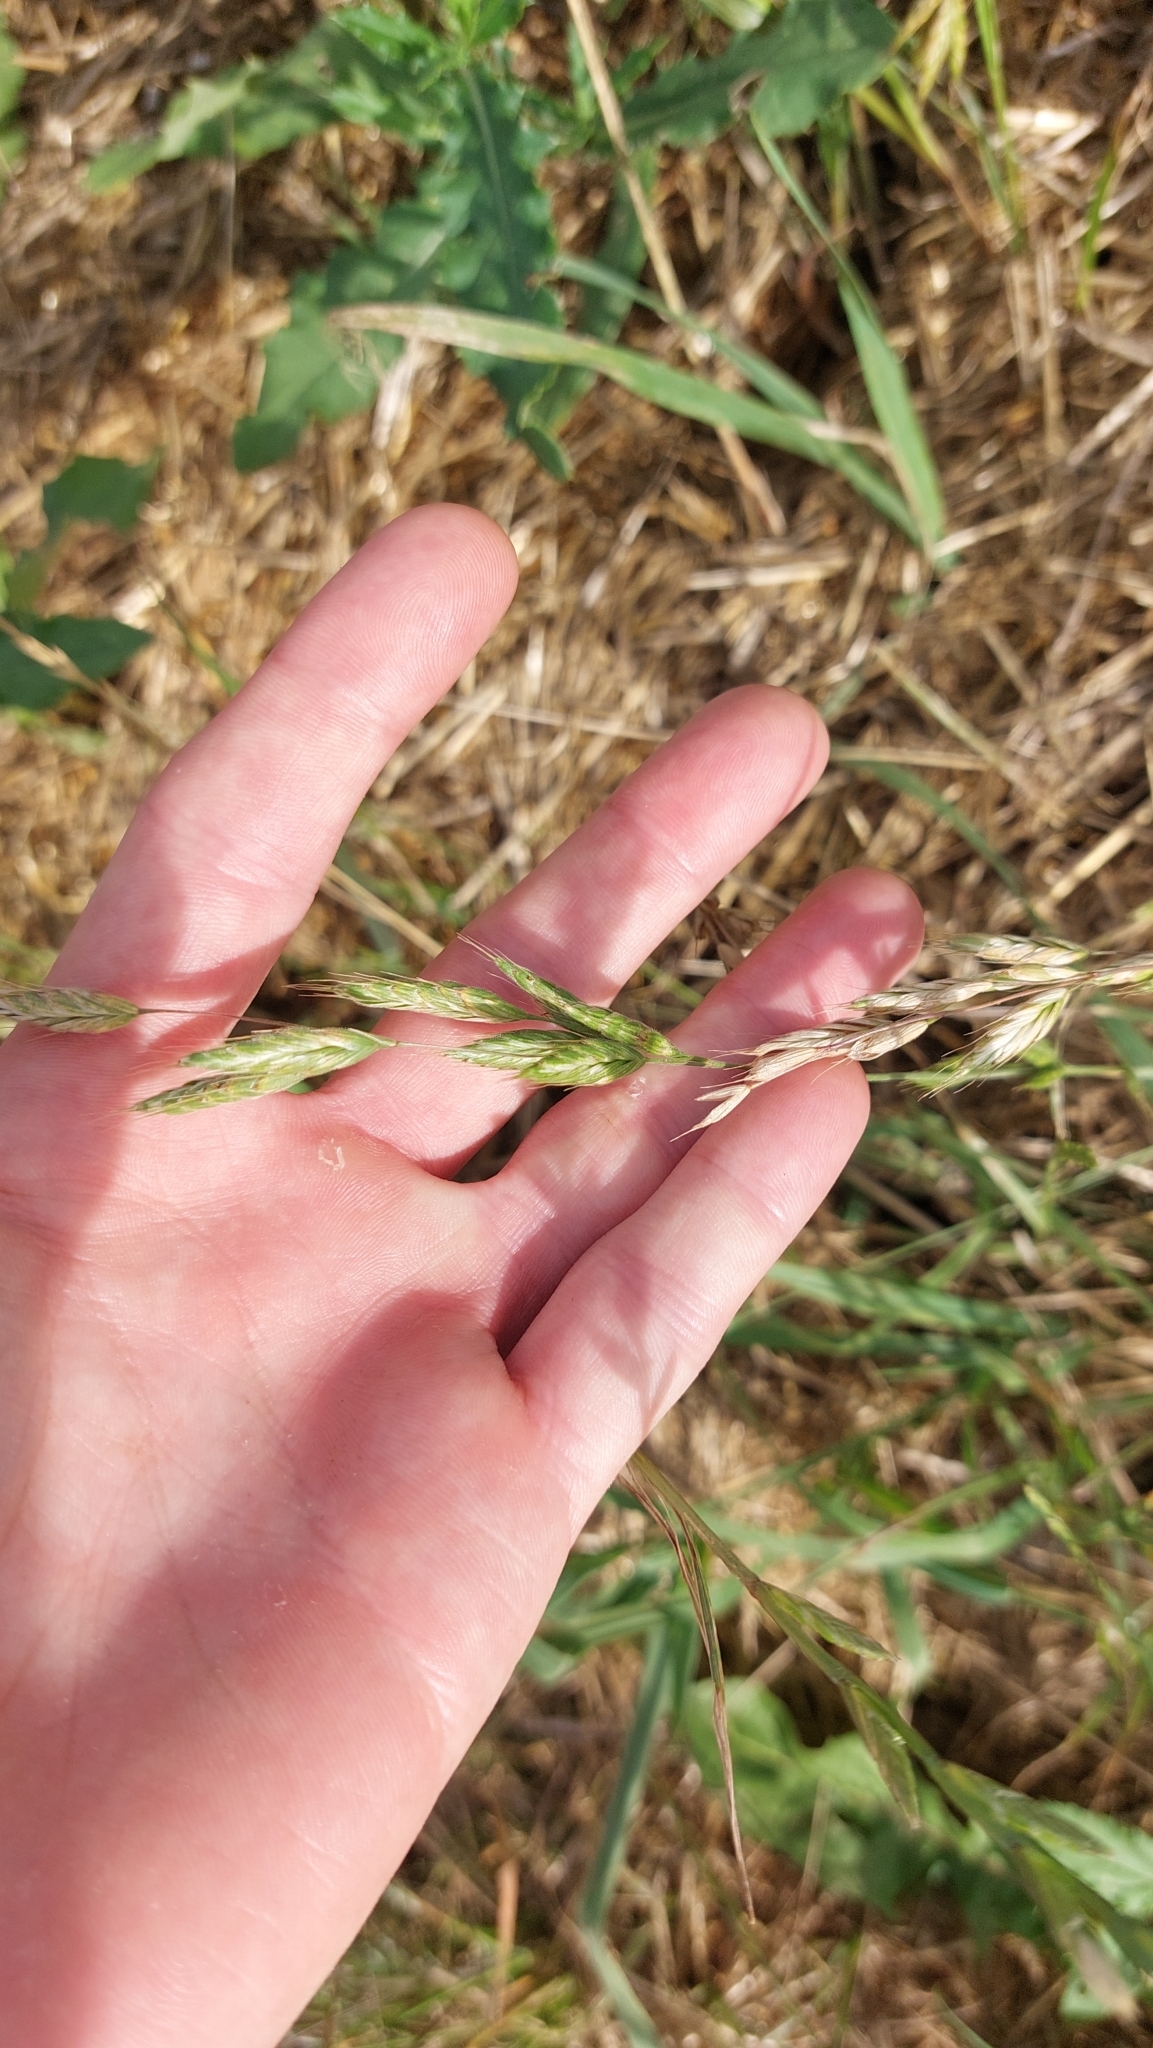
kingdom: Plantae
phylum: Tracheophyta
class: Liliopsida
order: Poales
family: Poaceae
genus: Bromus
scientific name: Bromus hordeaceus
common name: Soft brome
